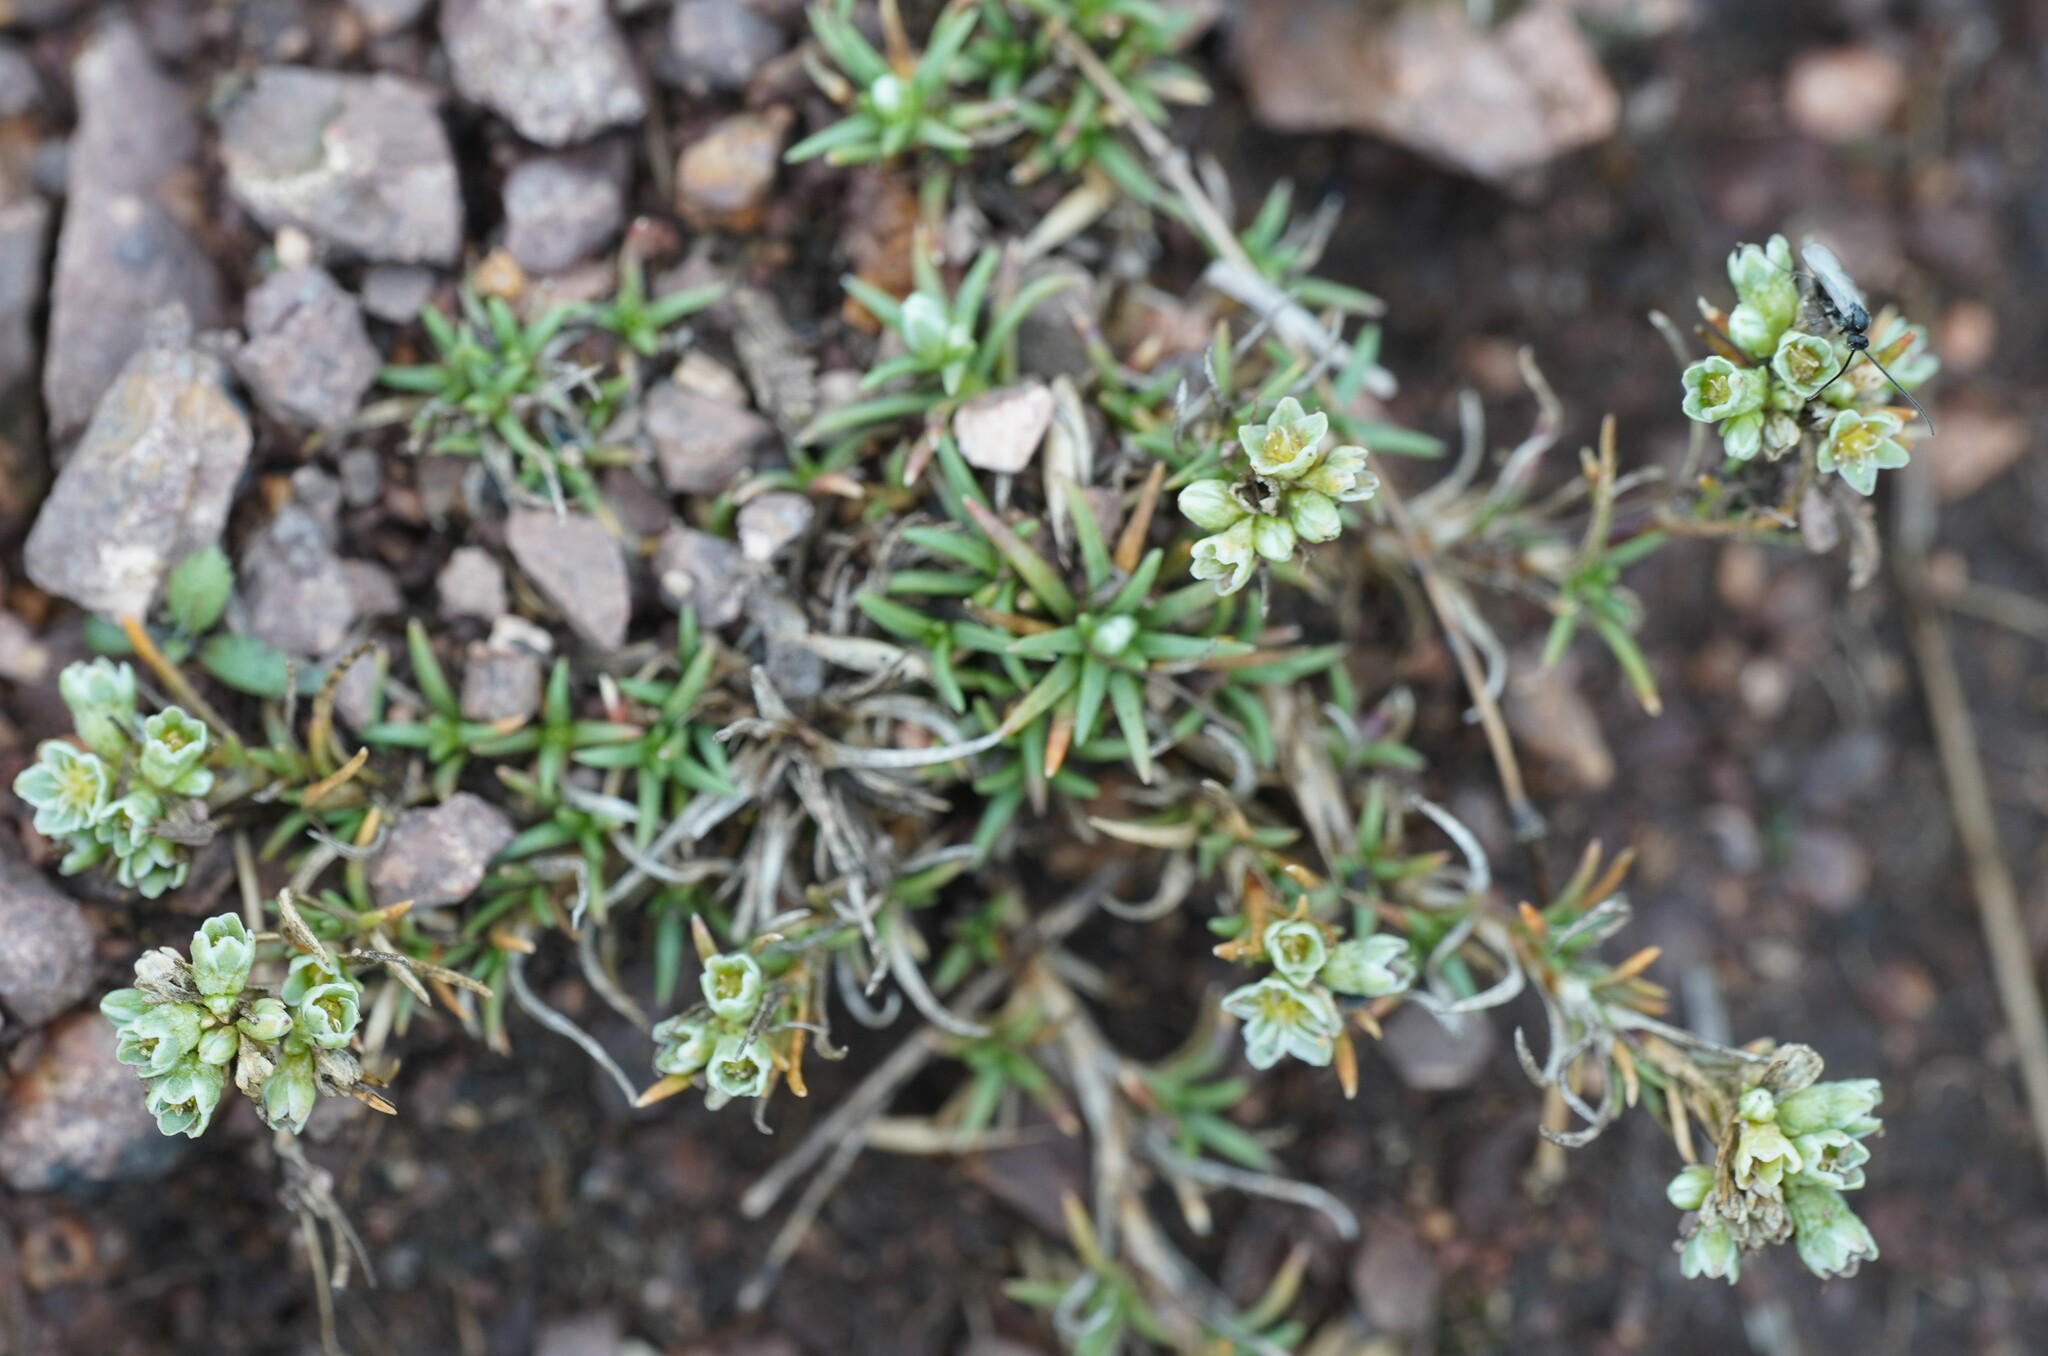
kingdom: Plantae
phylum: Tracheophyta
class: Magnoliopsida
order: Caryophyllales
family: Caryophyllaceae
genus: Scleranthus
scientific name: Scleranthus perennis
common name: Perennial knawel
